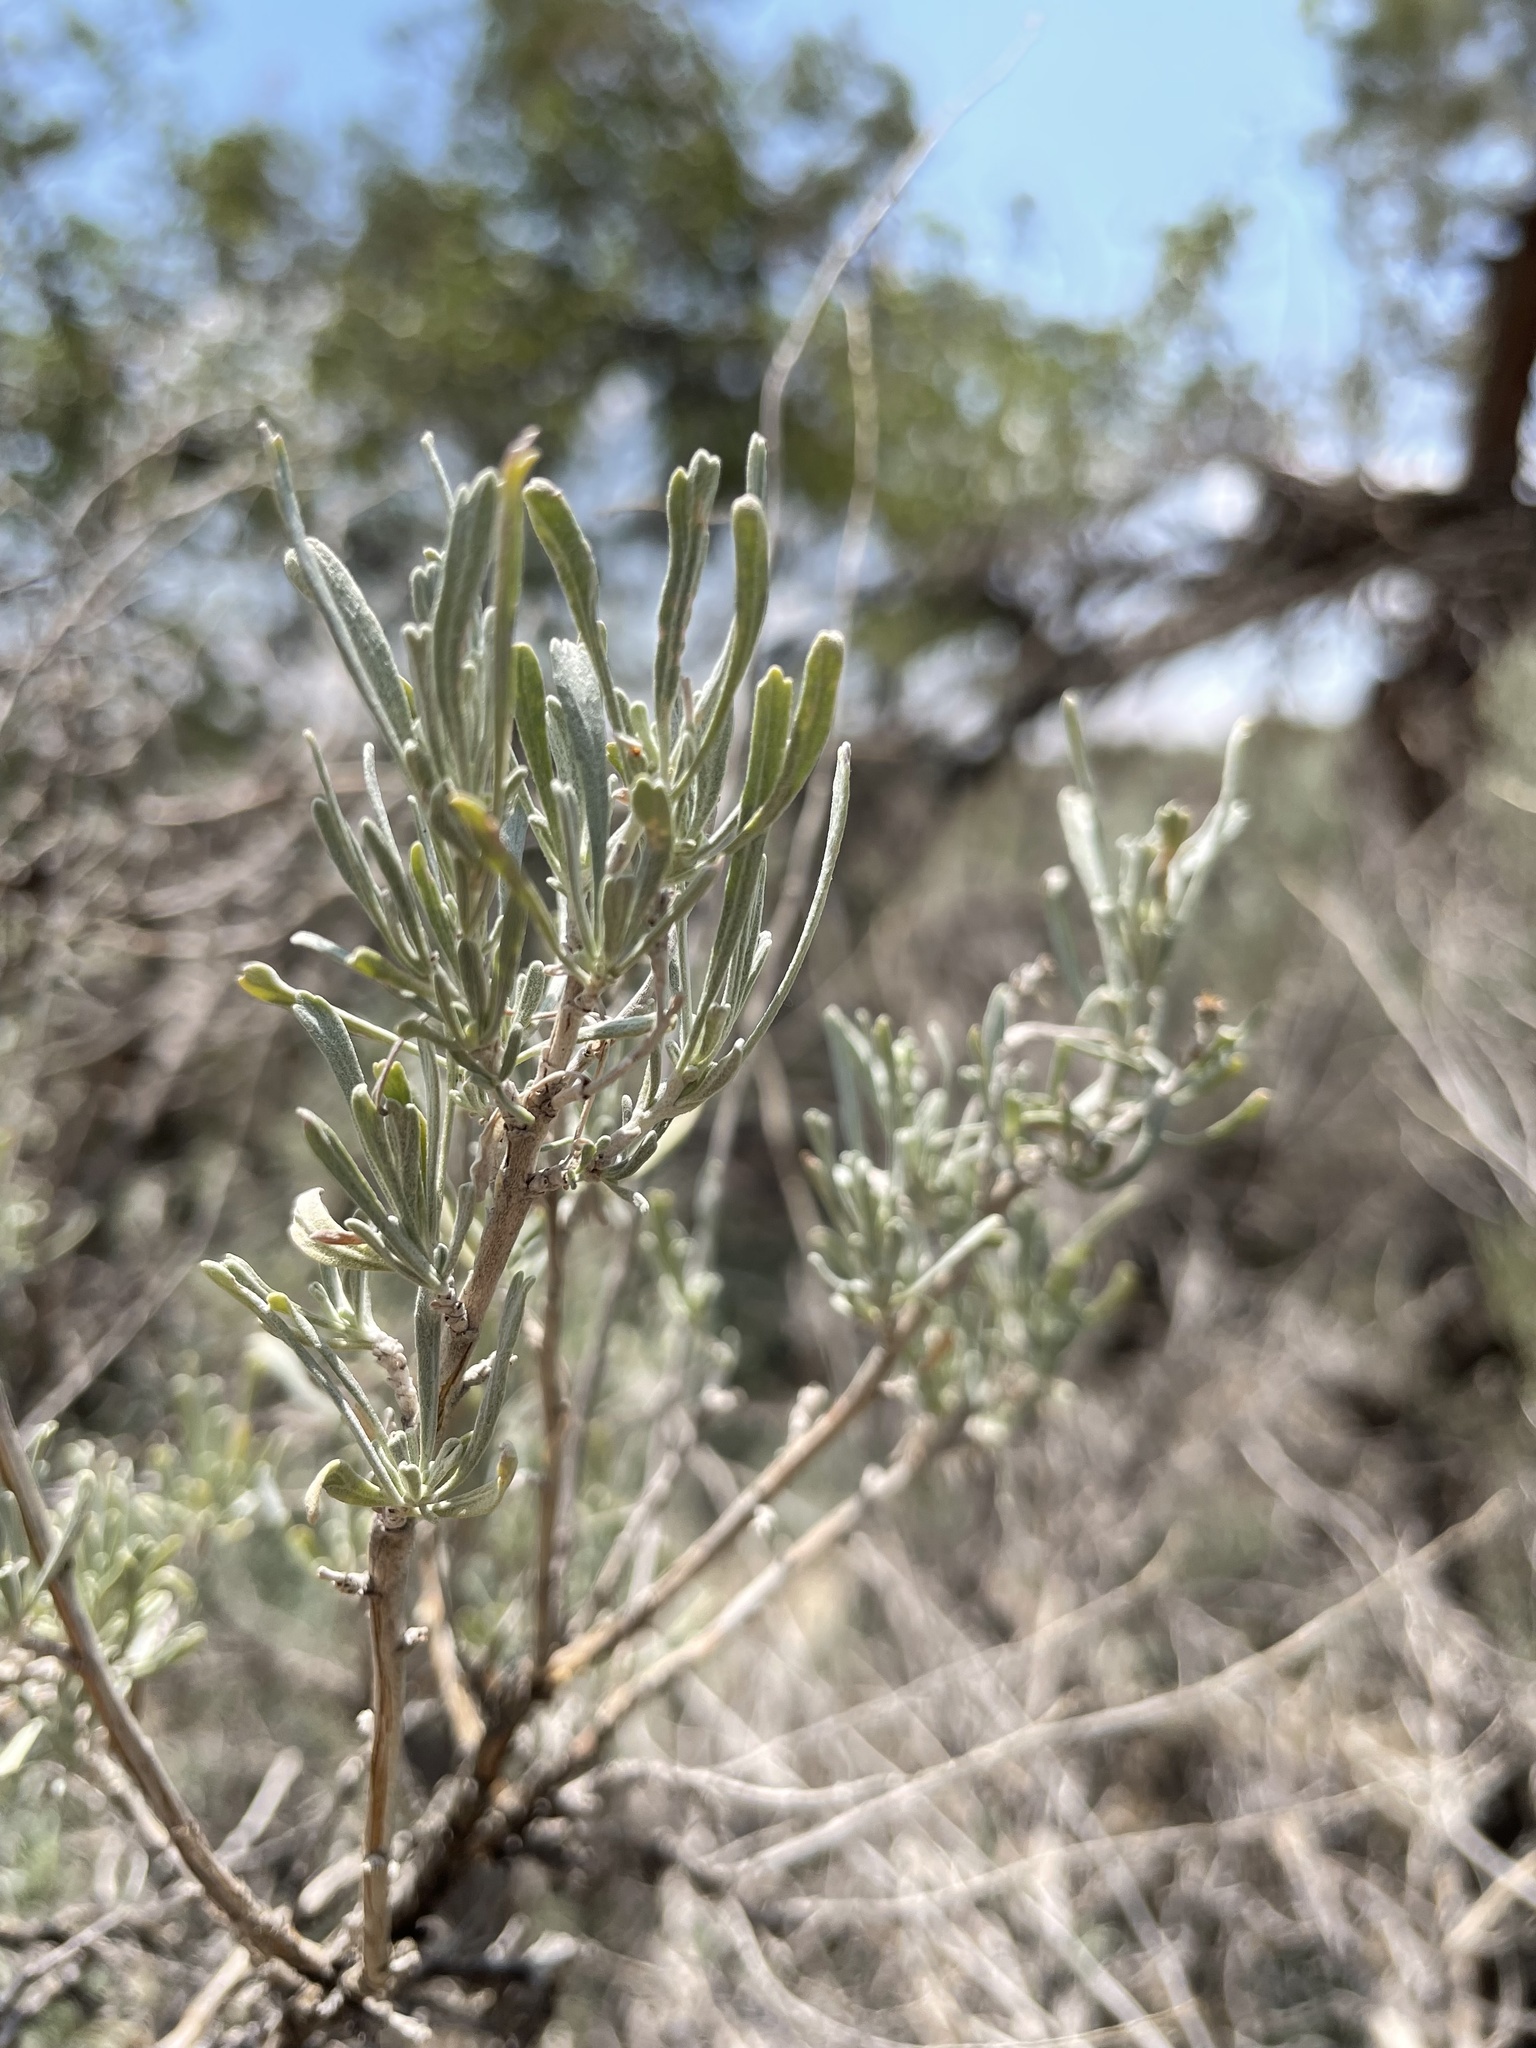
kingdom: Plantae
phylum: Tracheophyta
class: Magnoliopsida
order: Asterales
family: Asteraceae
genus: Artemisia
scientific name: Artemisia tridentata
